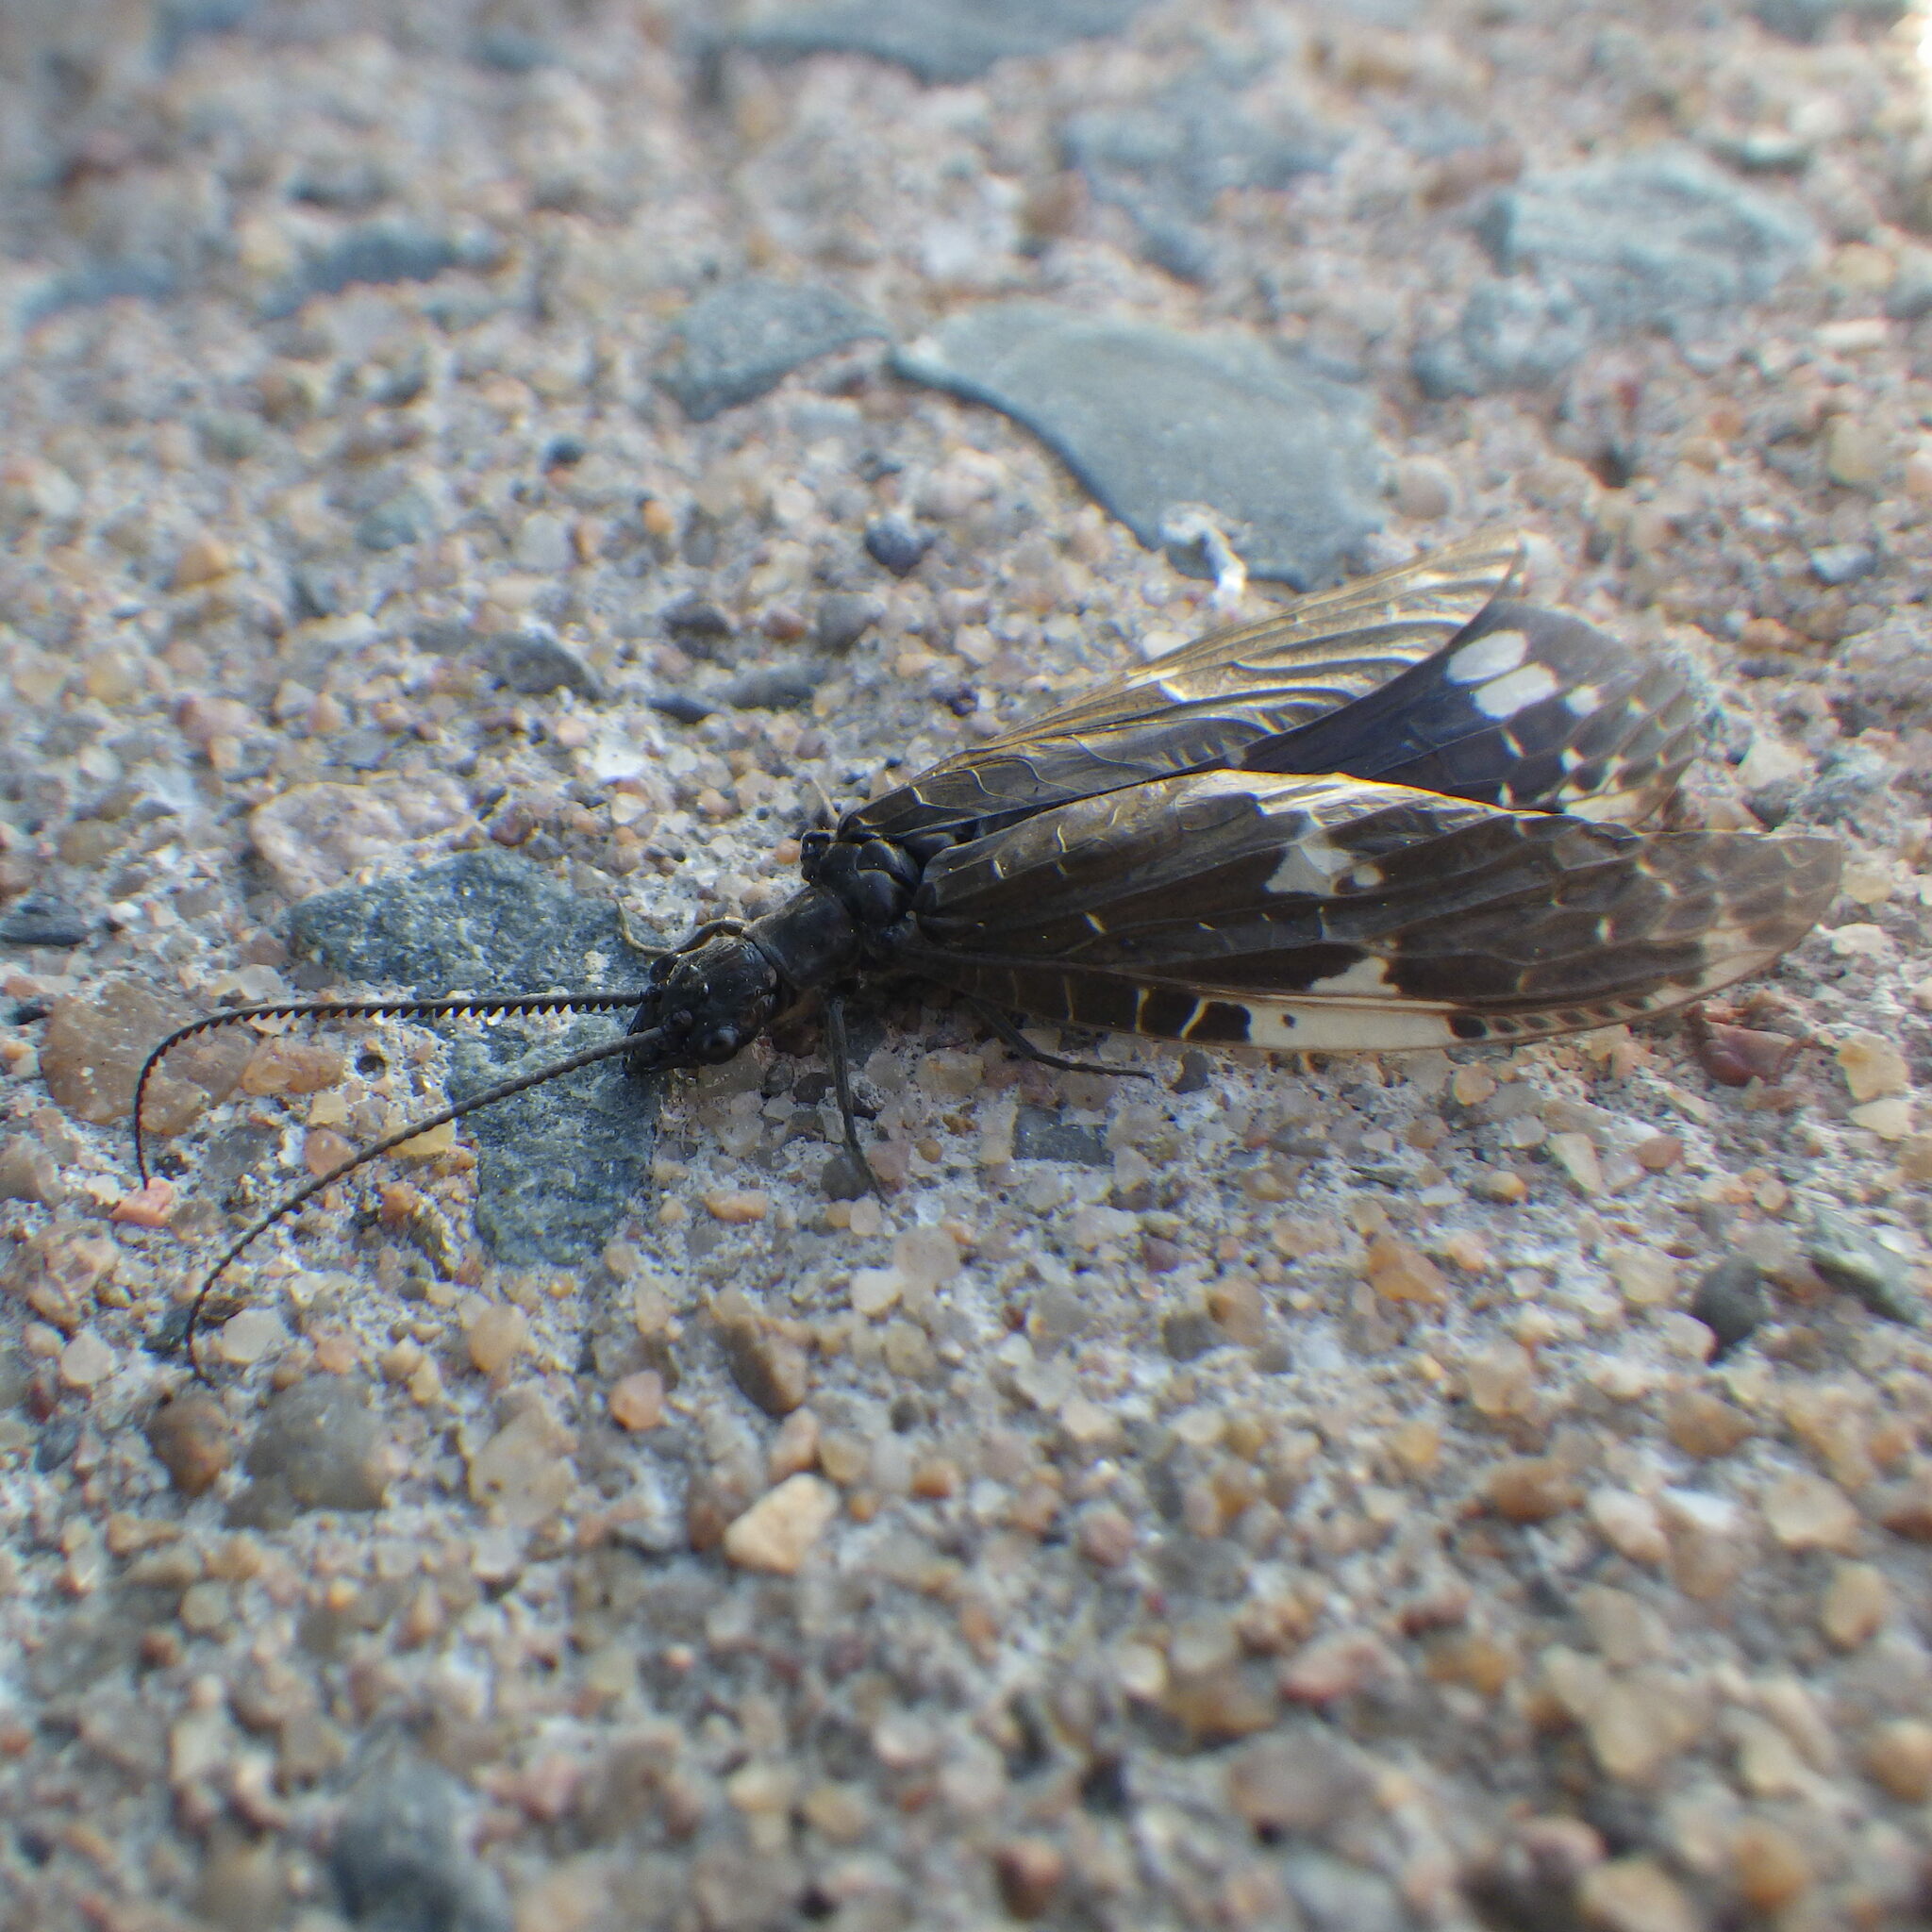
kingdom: Animalia
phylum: Arthropoda
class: Insecta
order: Megaloptera
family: Corydalidae
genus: Nigronia
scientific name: Nigronia serricornis
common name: Serrate dark fishfly
